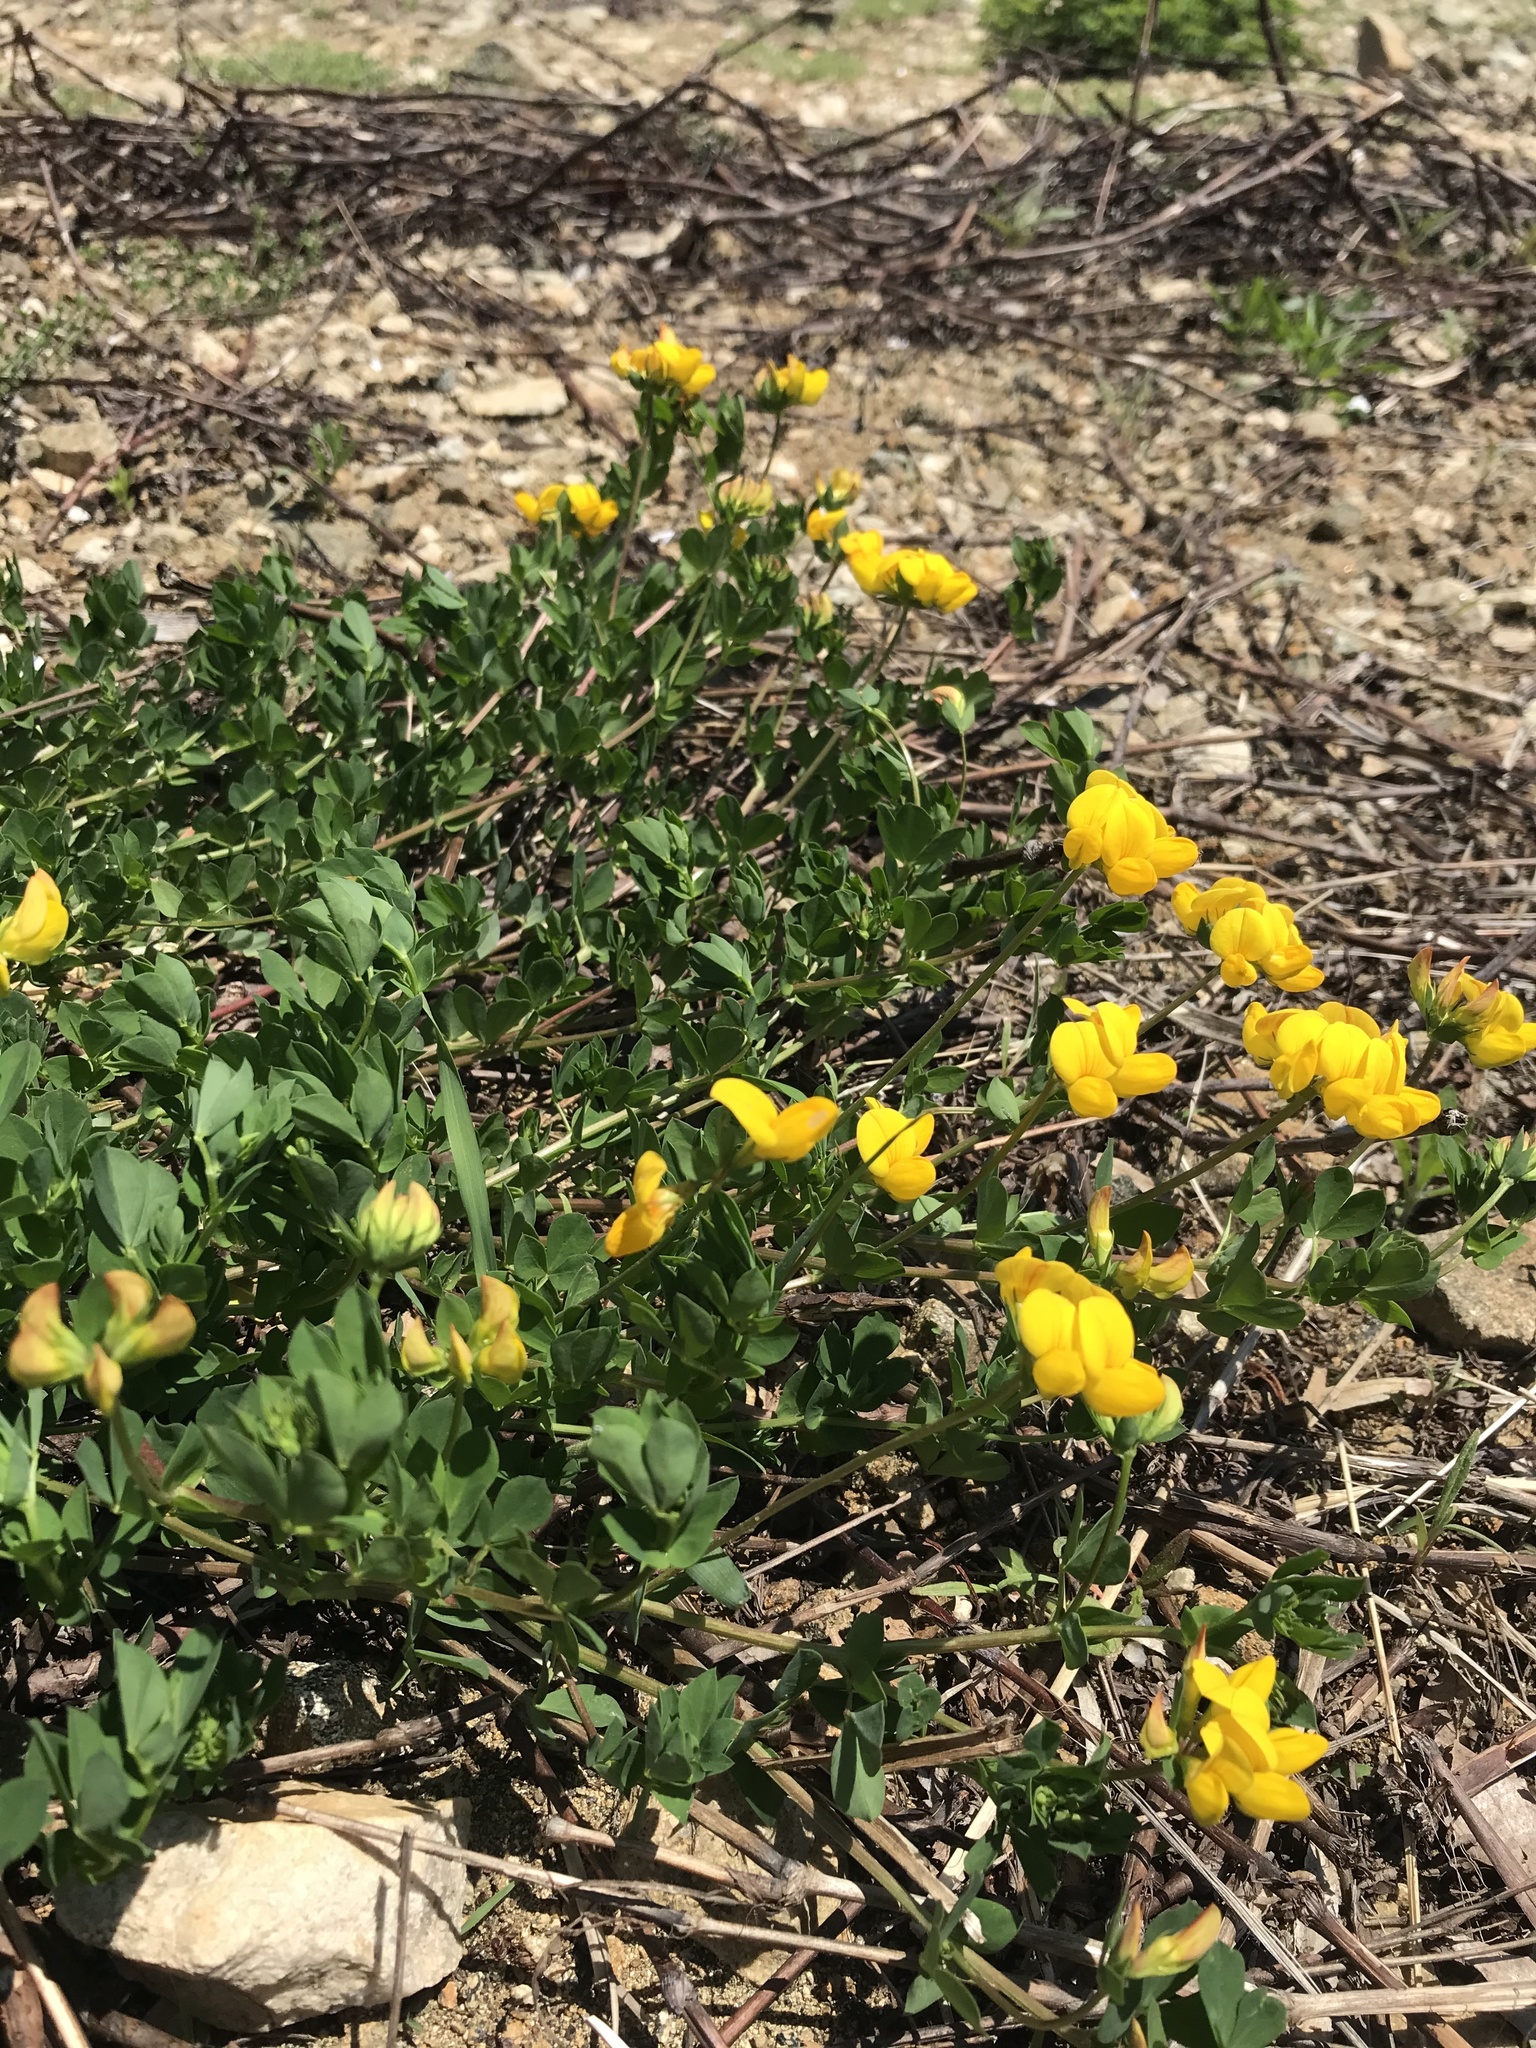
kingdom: Plantae
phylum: Tracheophyta
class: Magnoliopsida
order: Fabales
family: Fabaceae
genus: Lotus
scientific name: Lotus corniculatus
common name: Common bird's-foot-trefoil
